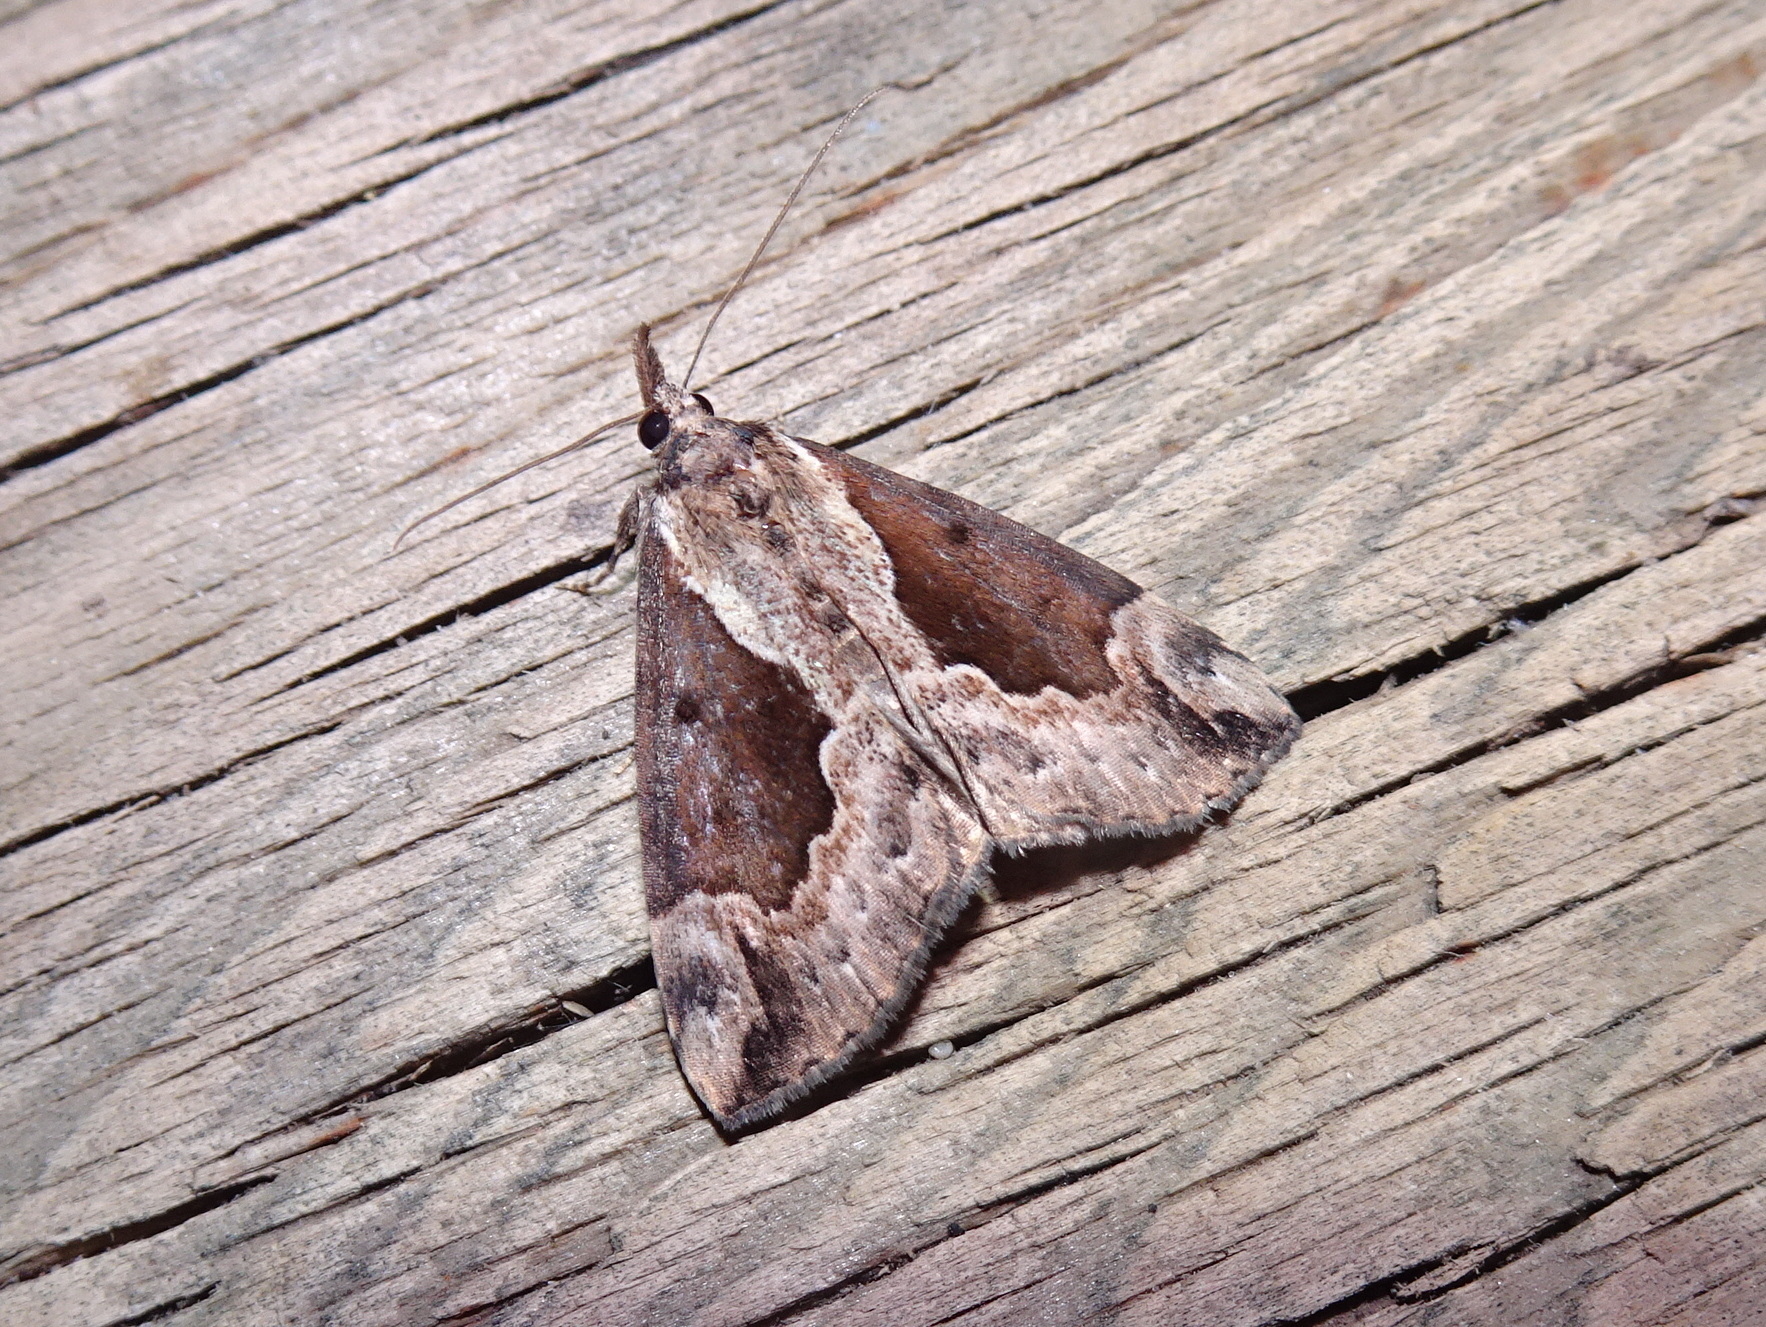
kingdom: Animalia
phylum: Arthropoda
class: Insecta
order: Lepidoptera
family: Erebidae
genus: Hypena
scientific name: Hypena baltimoralis
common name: Baltimore snout
